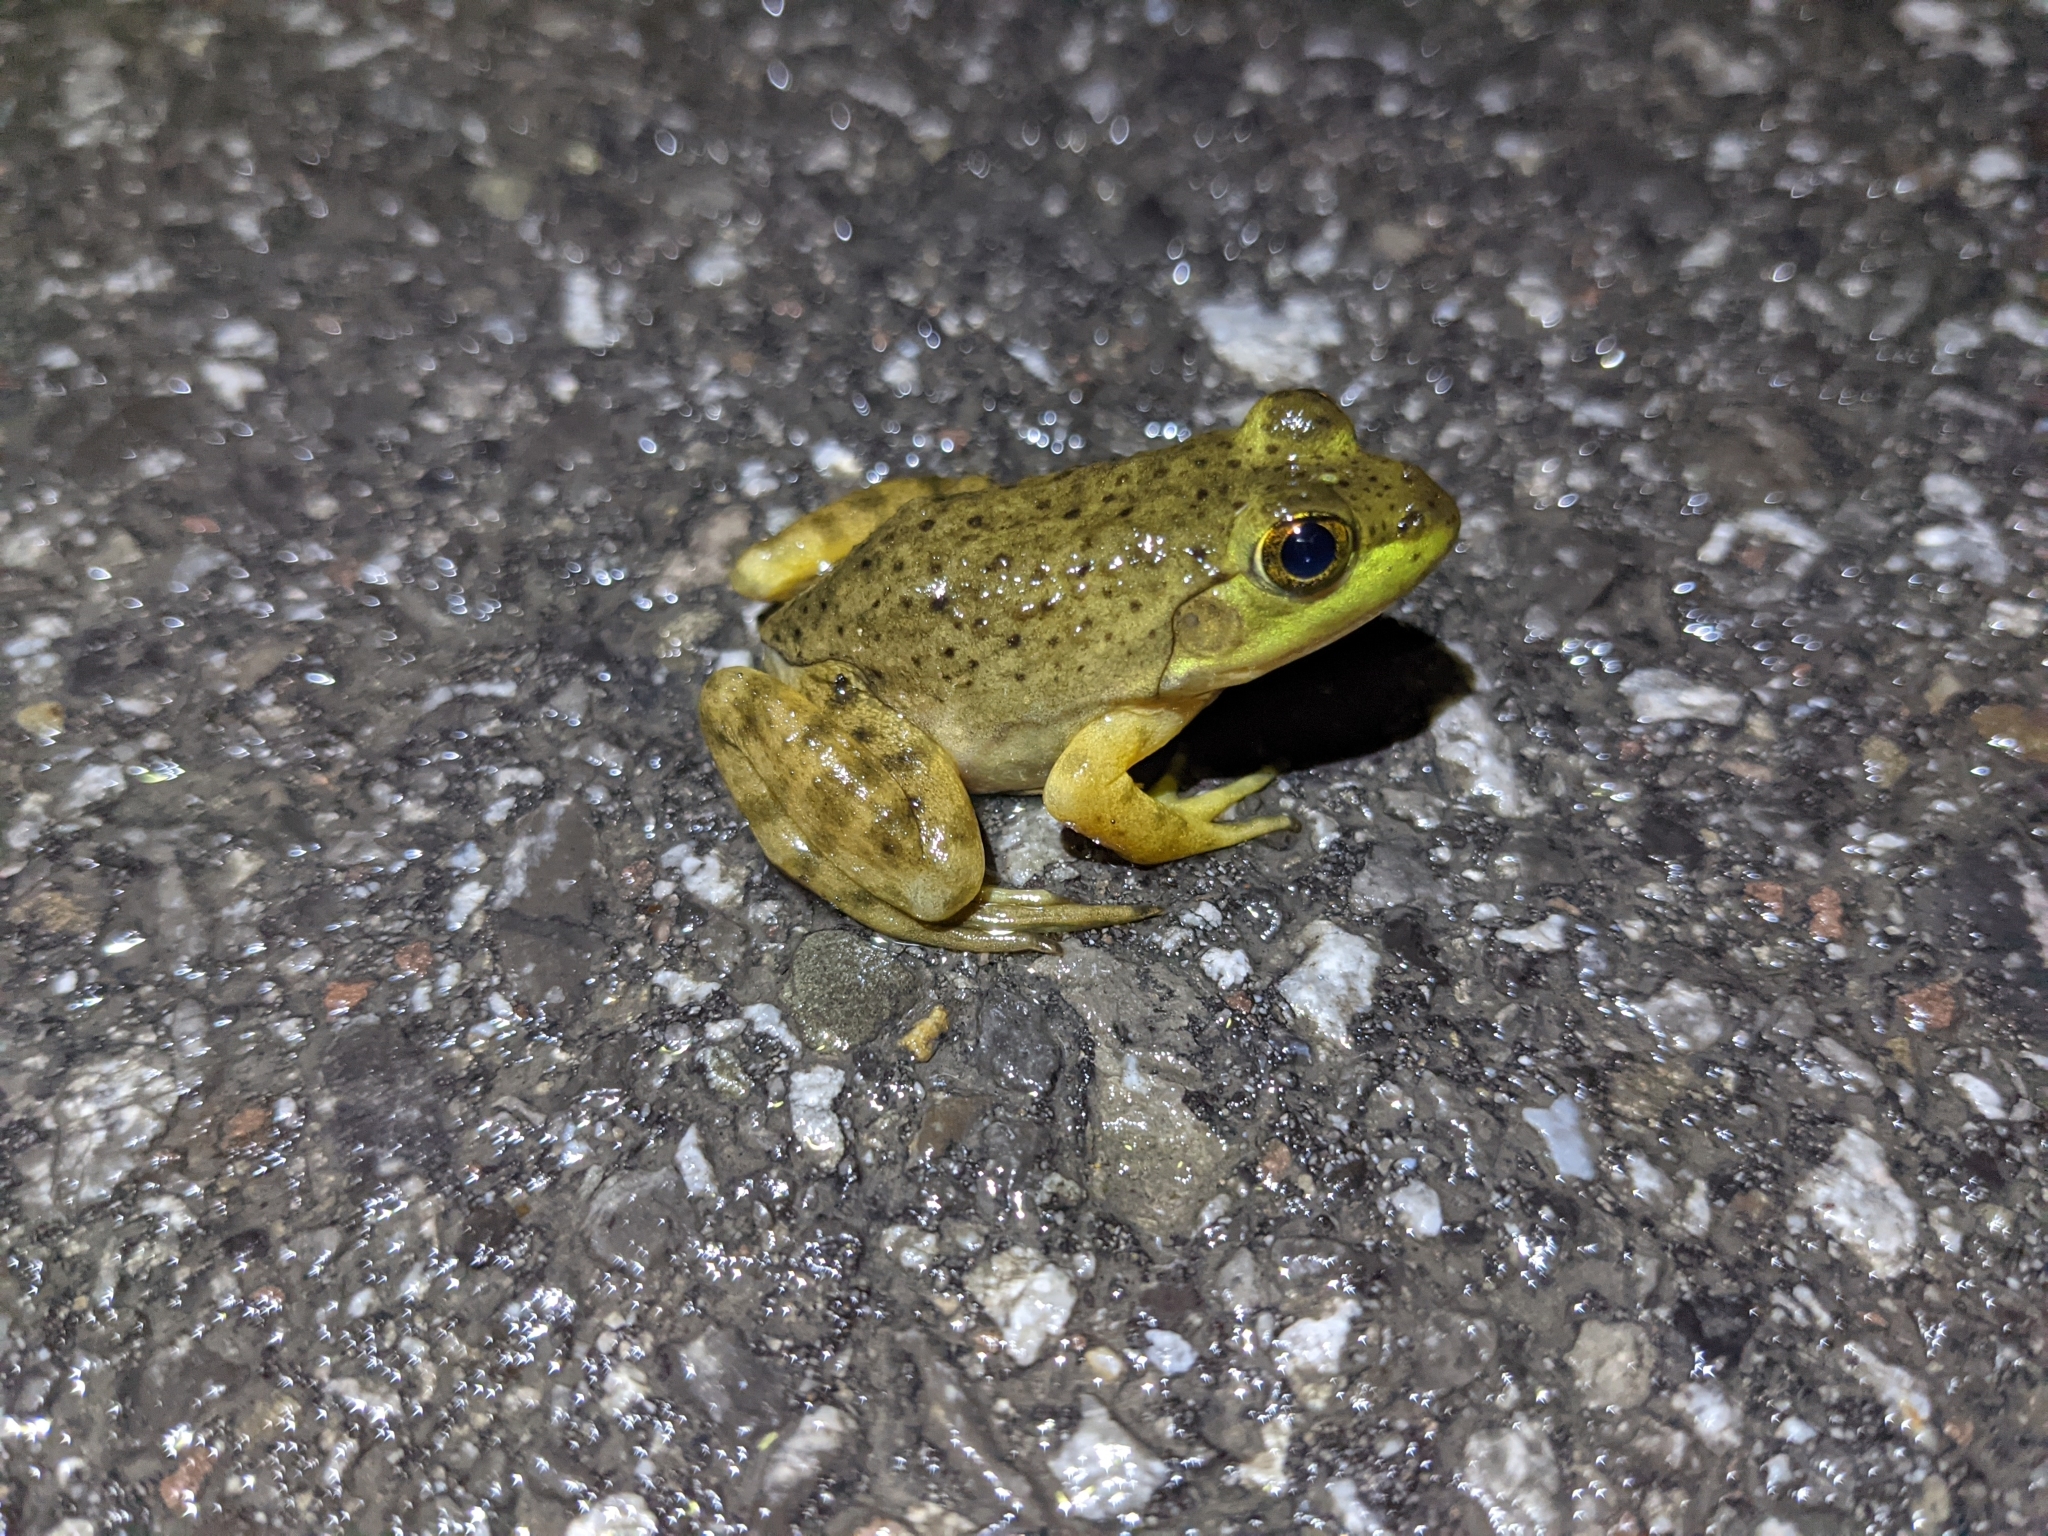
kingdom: Animalia
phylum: Chordata
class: Amphibia
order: Anura
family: Ranidae
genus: Lithobates
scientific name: Lithobates catesbeianus
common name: American bullfrog
